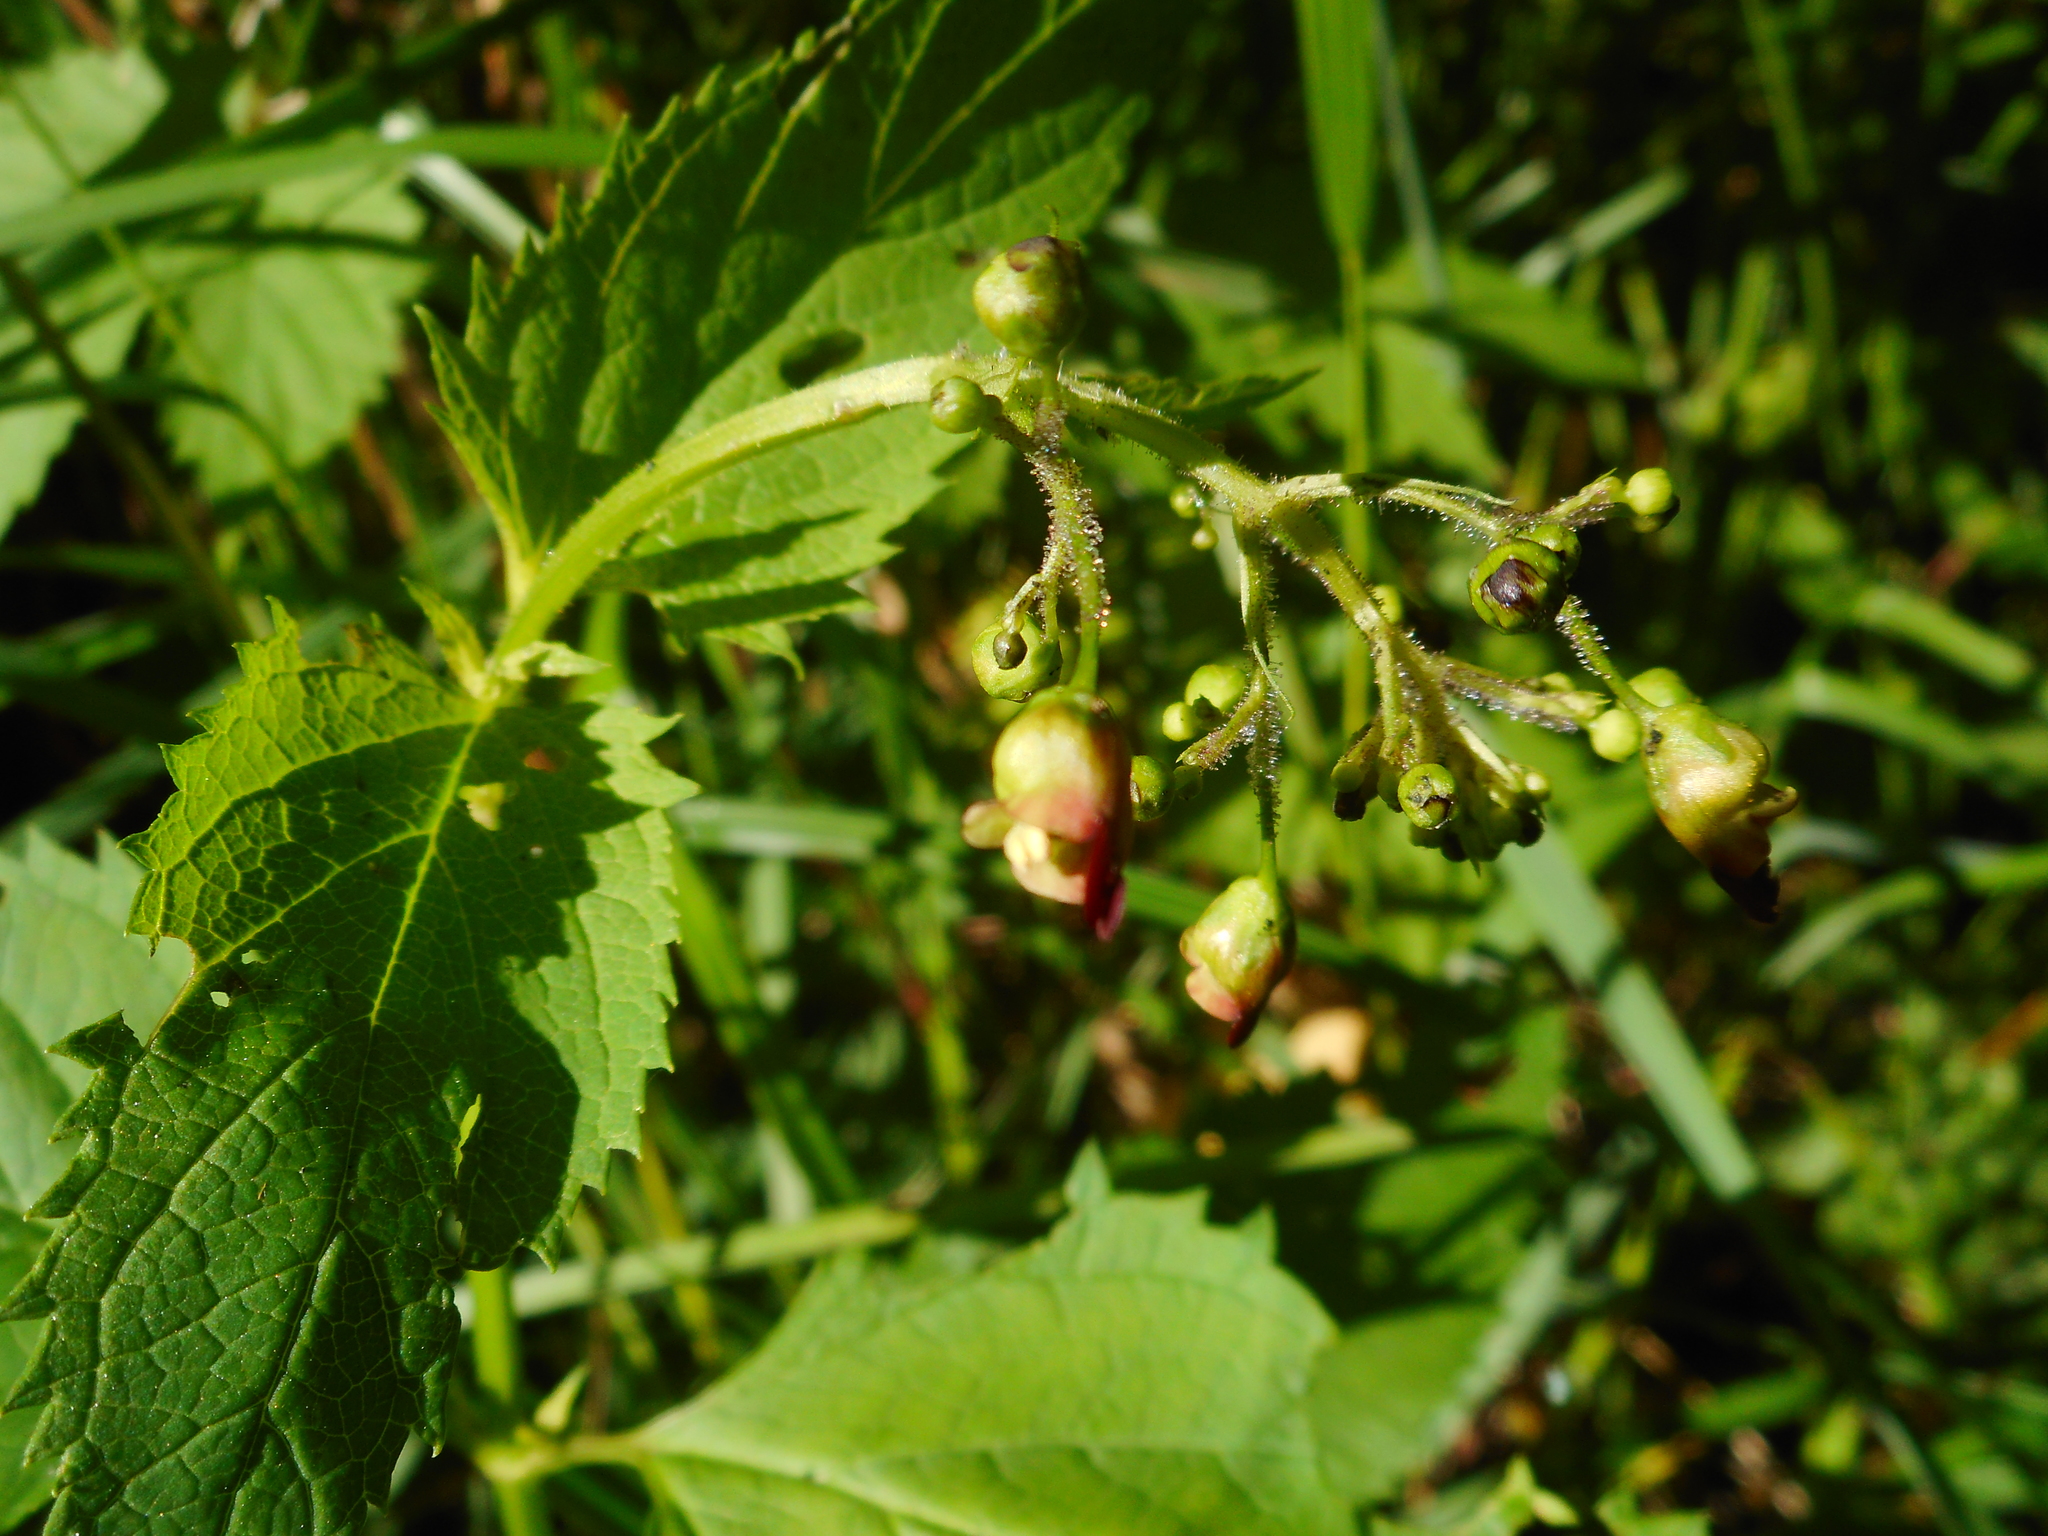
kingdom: Plantae
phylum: Tracheophyta
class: Magnoliopsida
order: Lamiales
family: Scrophulariaceae
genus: Scrophularia
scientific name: Scrophularia nodosa
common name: Common figwort
